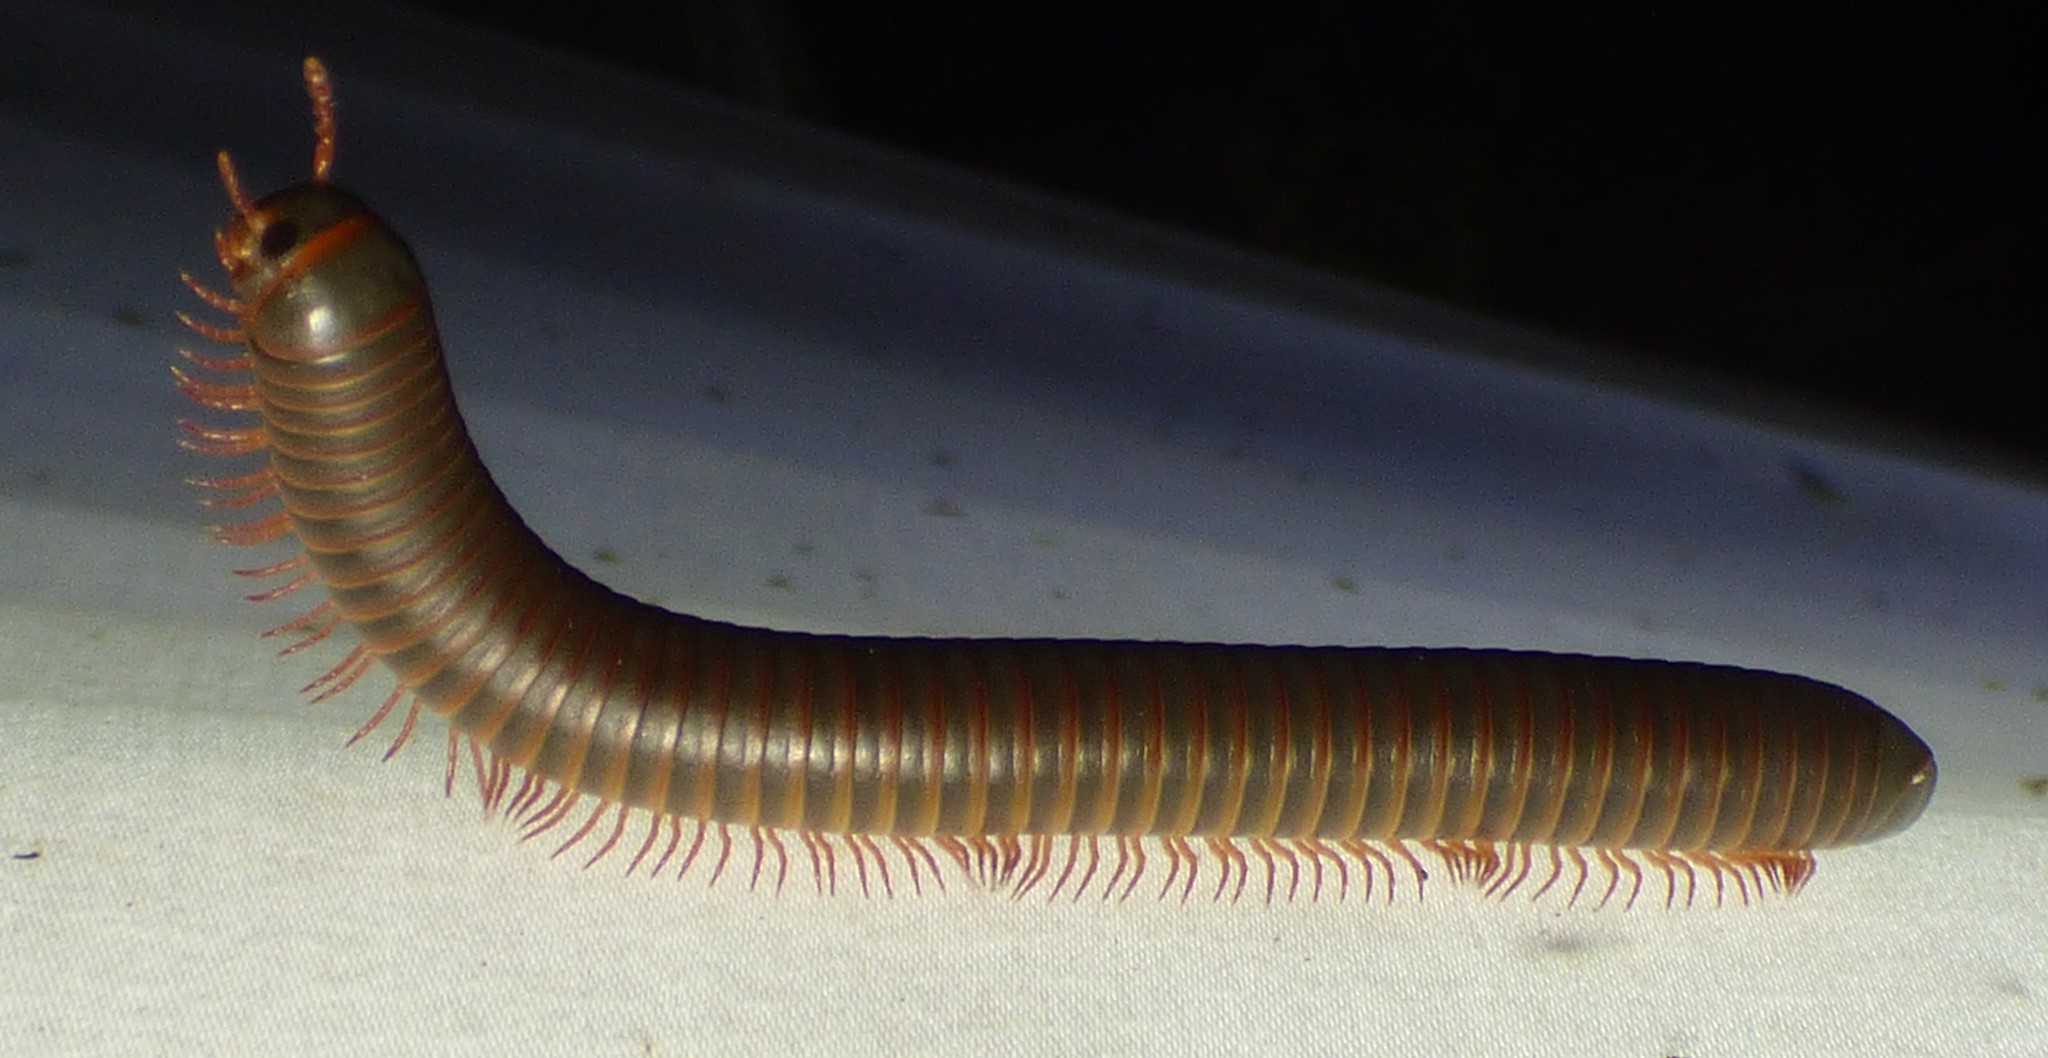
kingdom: Animalia
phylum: Arthropoda
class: Diplopoda
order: Spirobolida
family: Spirobolidae
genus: Narceus
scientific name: Narceus
